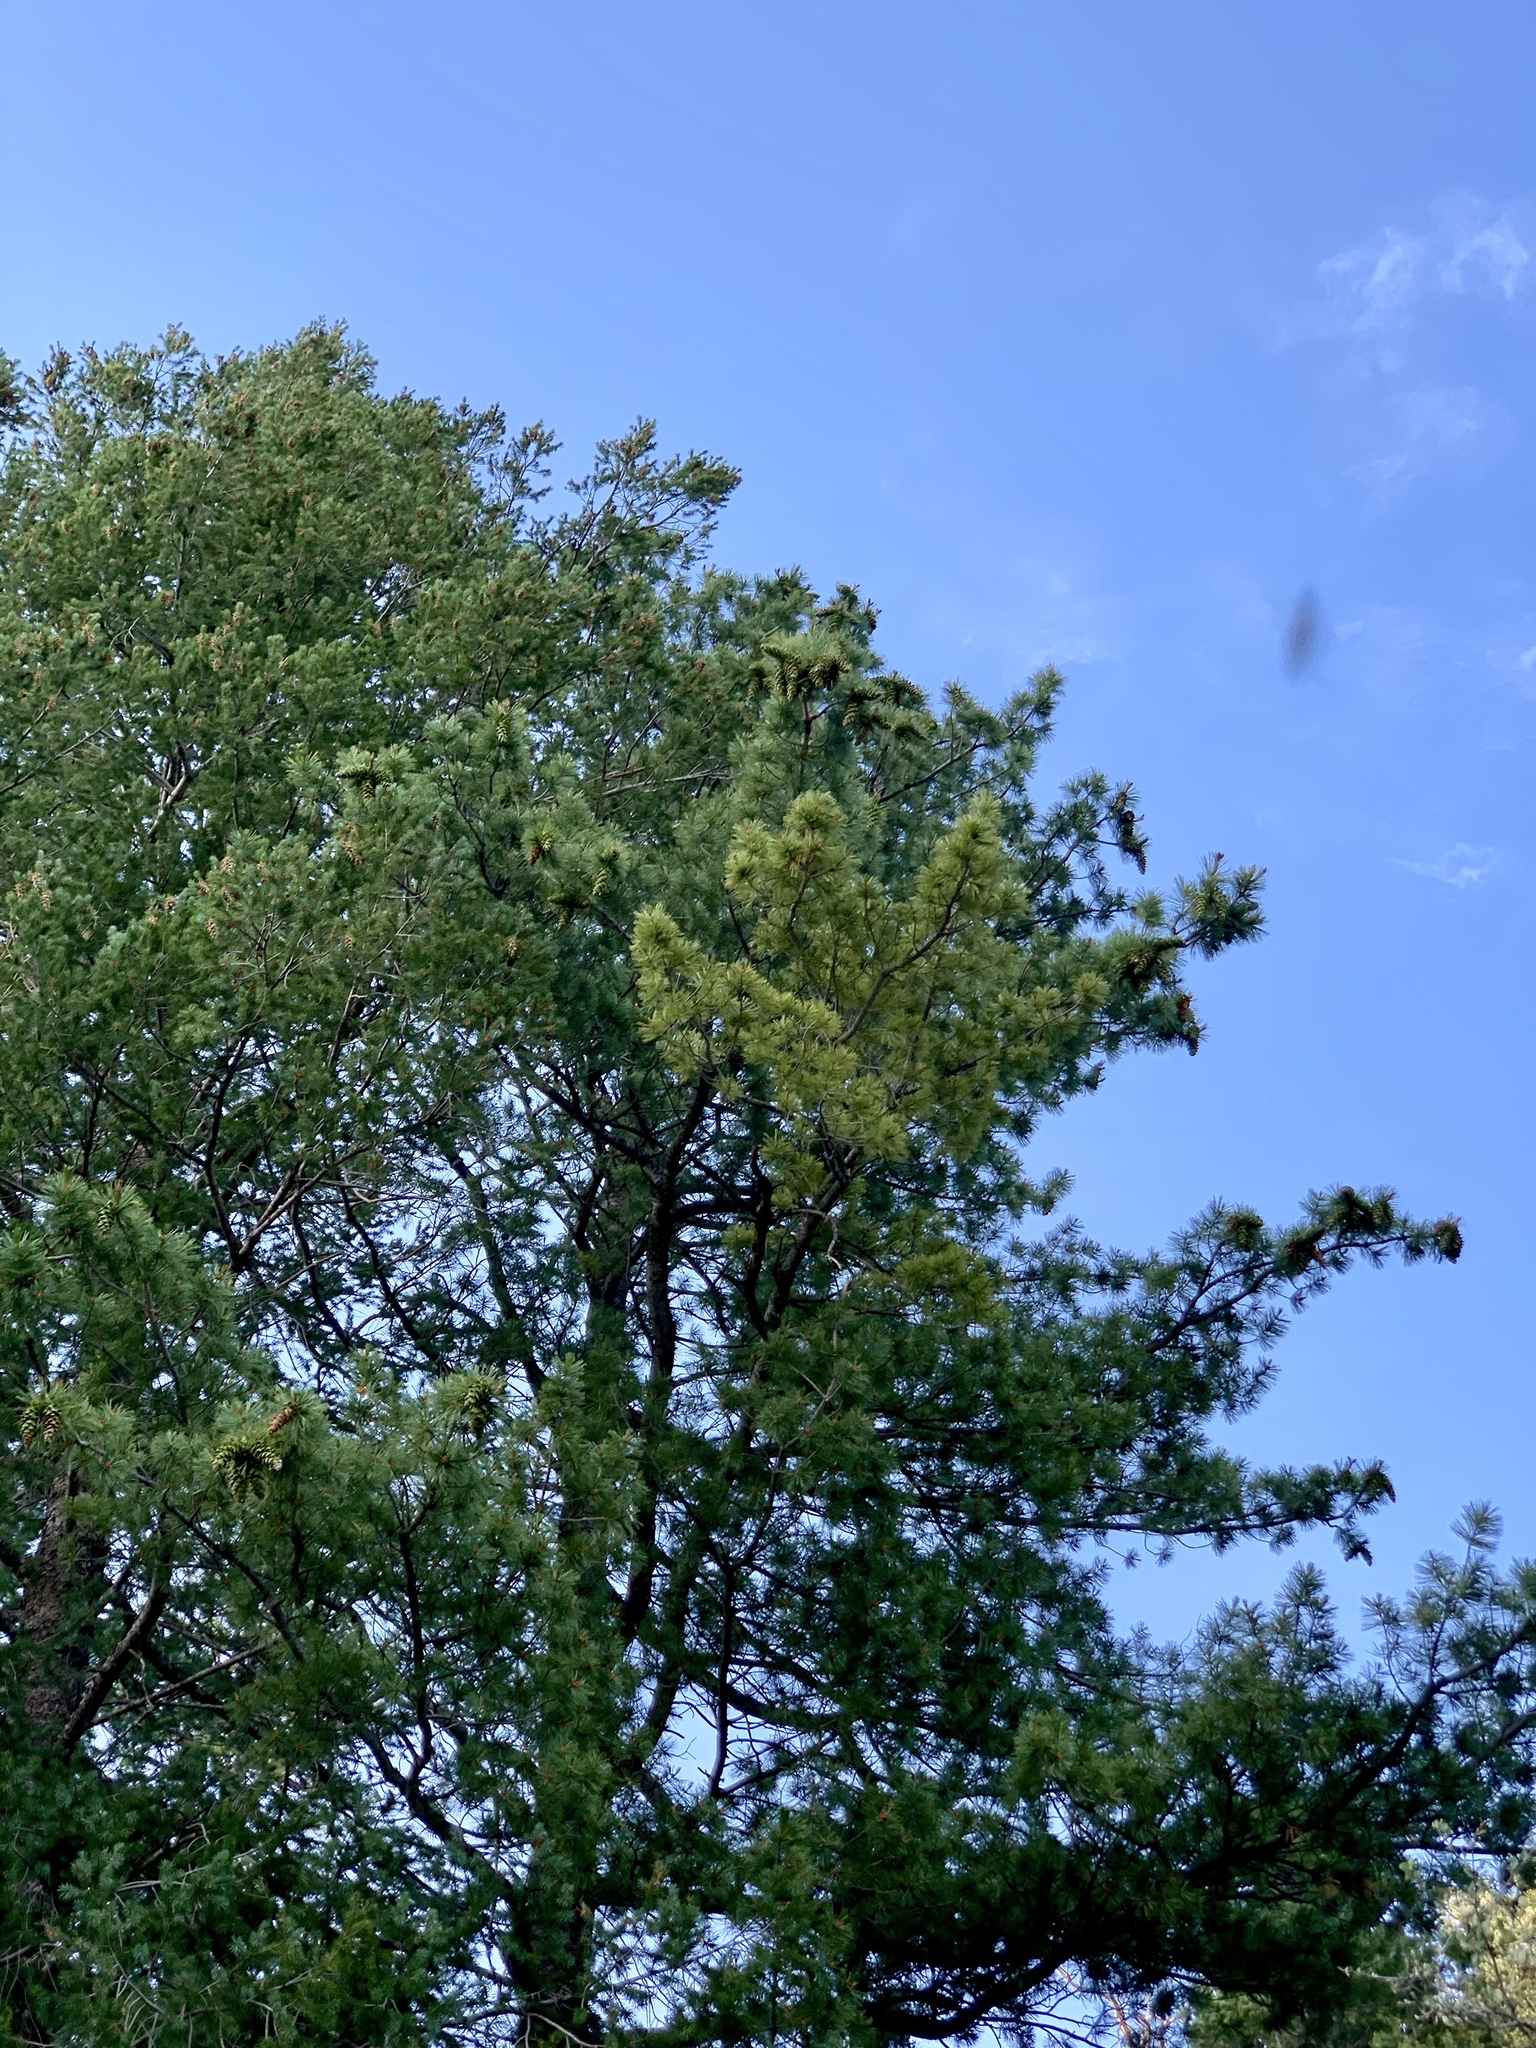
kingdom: Plantae
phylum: Tracheophyta
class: Pinopsida
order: Pinales
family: Pinaceae
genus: Pinus
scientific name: Pinus strobiformis
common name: Southwestern white pine
